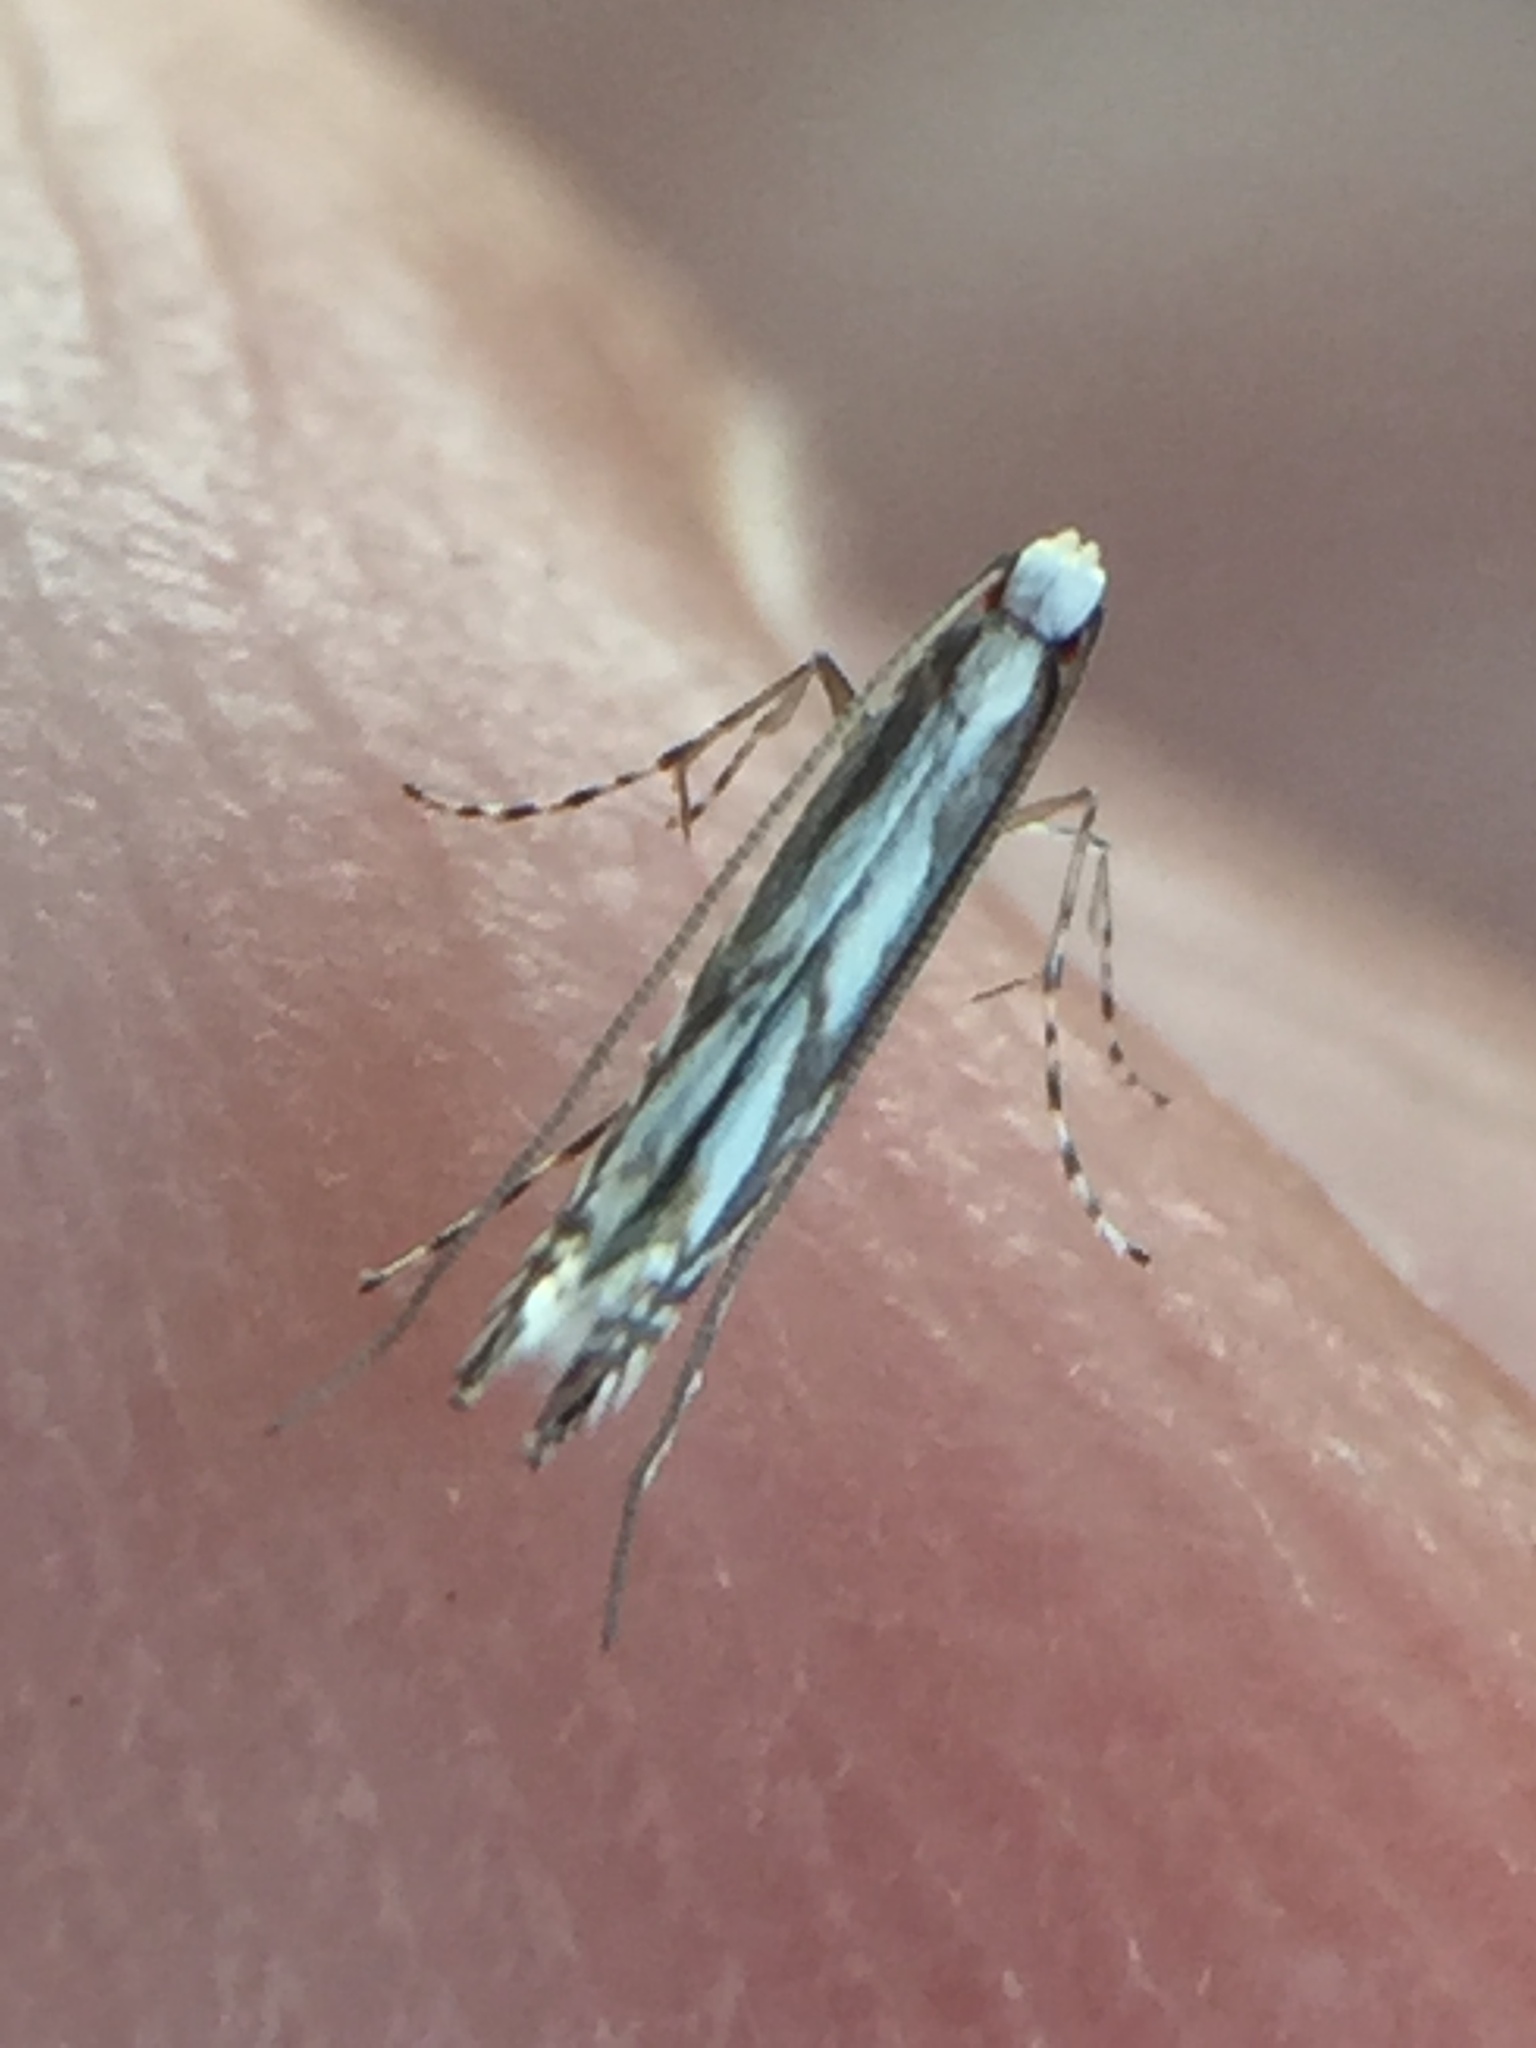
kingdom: Animalia
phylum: Arthropoda
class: Insecta
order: Lepidoptera
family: Gracillariidae
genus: Acrocercops
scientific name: Acrocercops leucotoma
